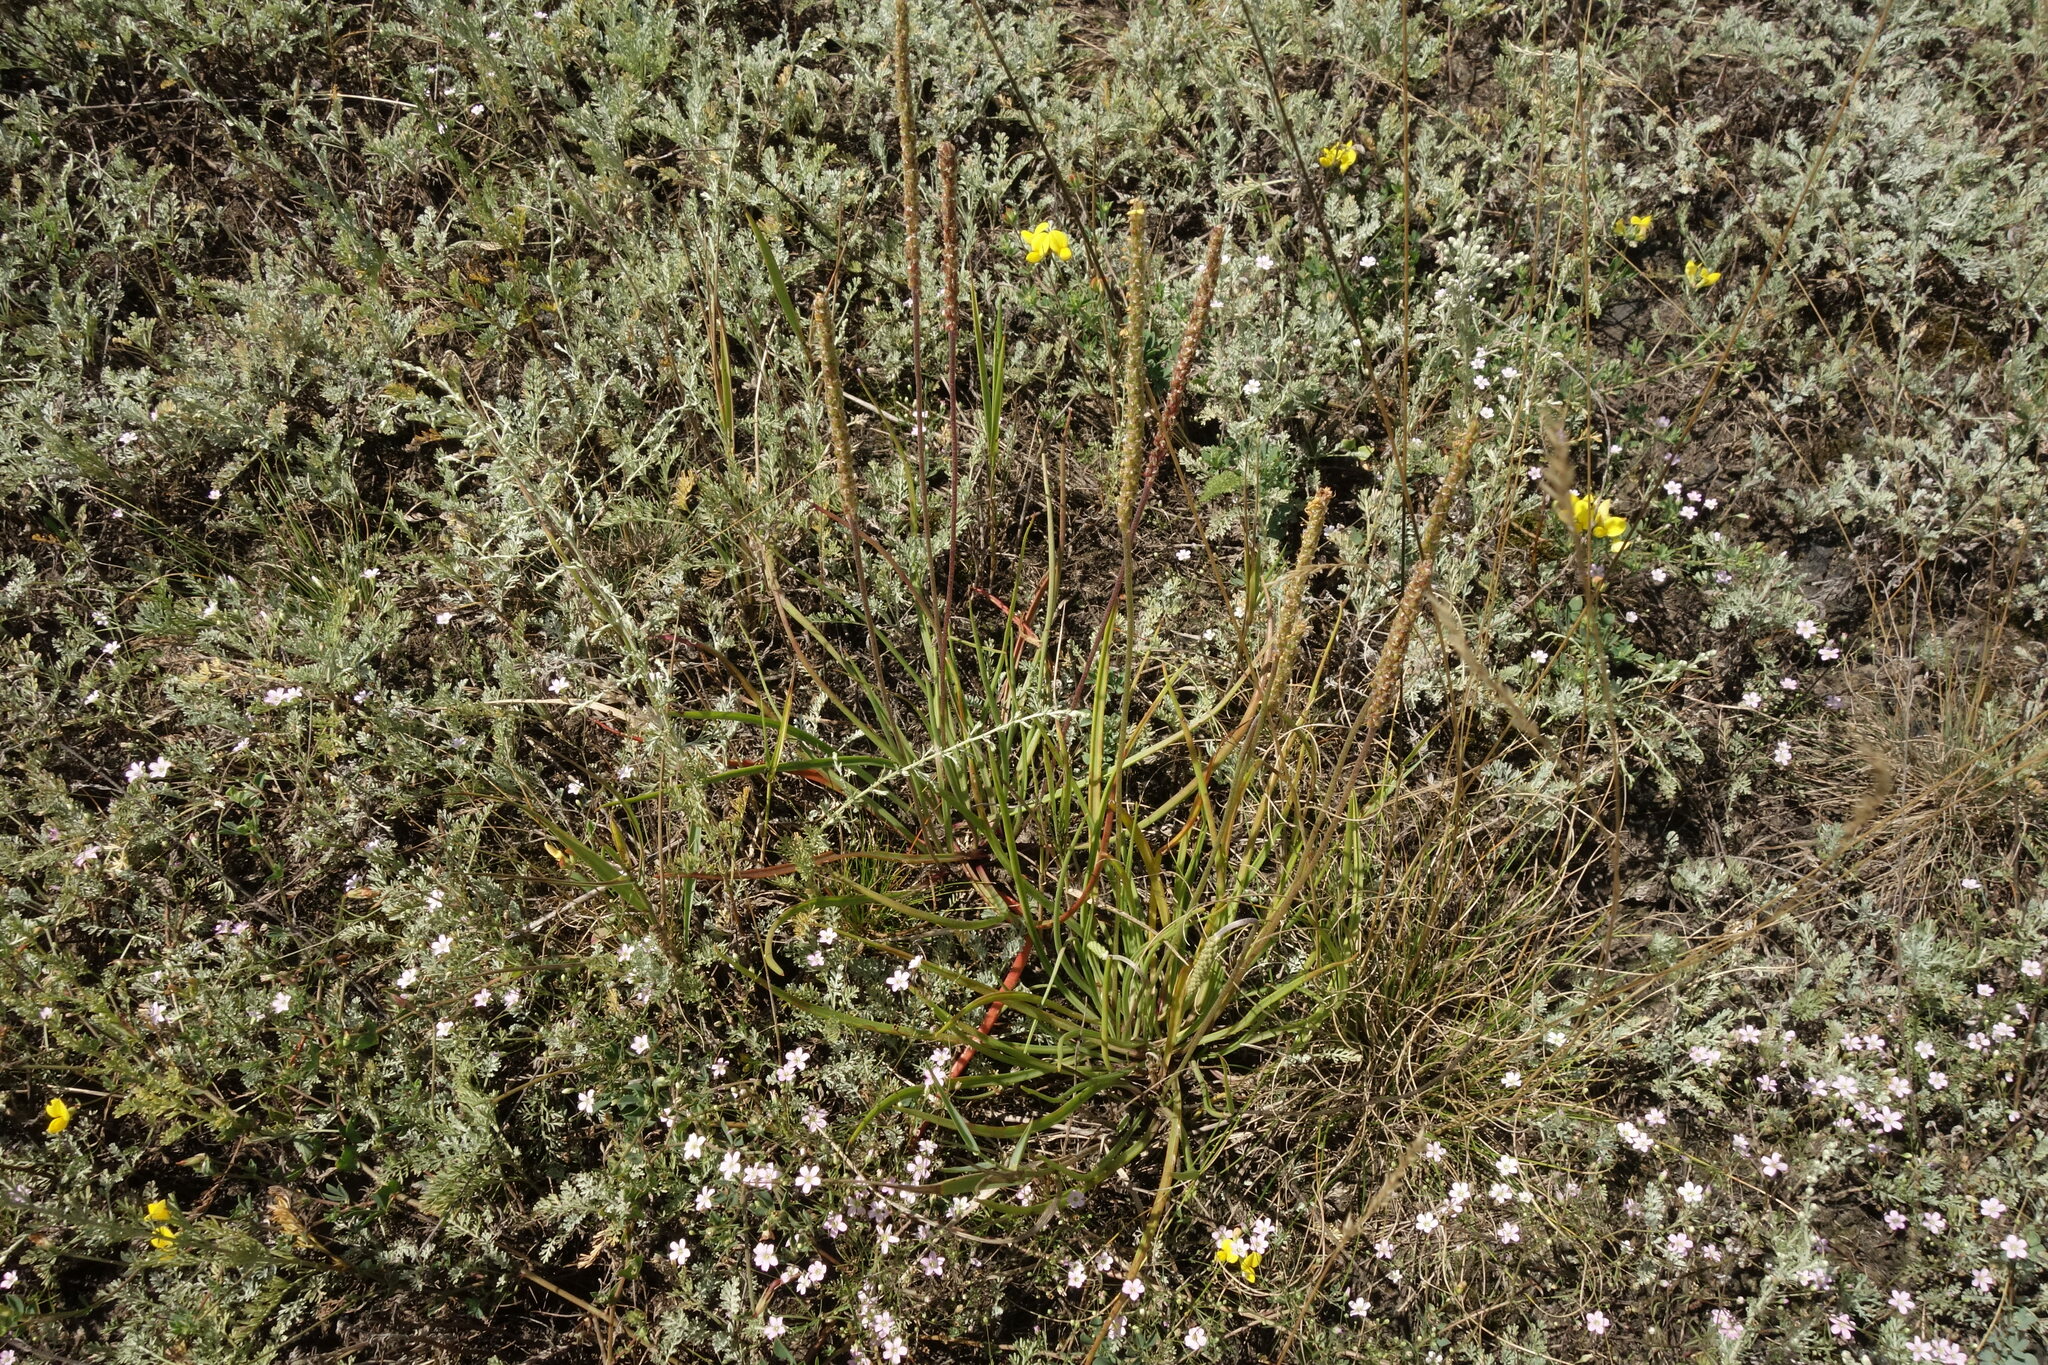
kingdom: Plantae
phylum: Tracheophyta
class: Magnoliopsida
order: Lamiales
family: Plantaginaceae
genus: Plantago
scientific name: Plantago salsa
